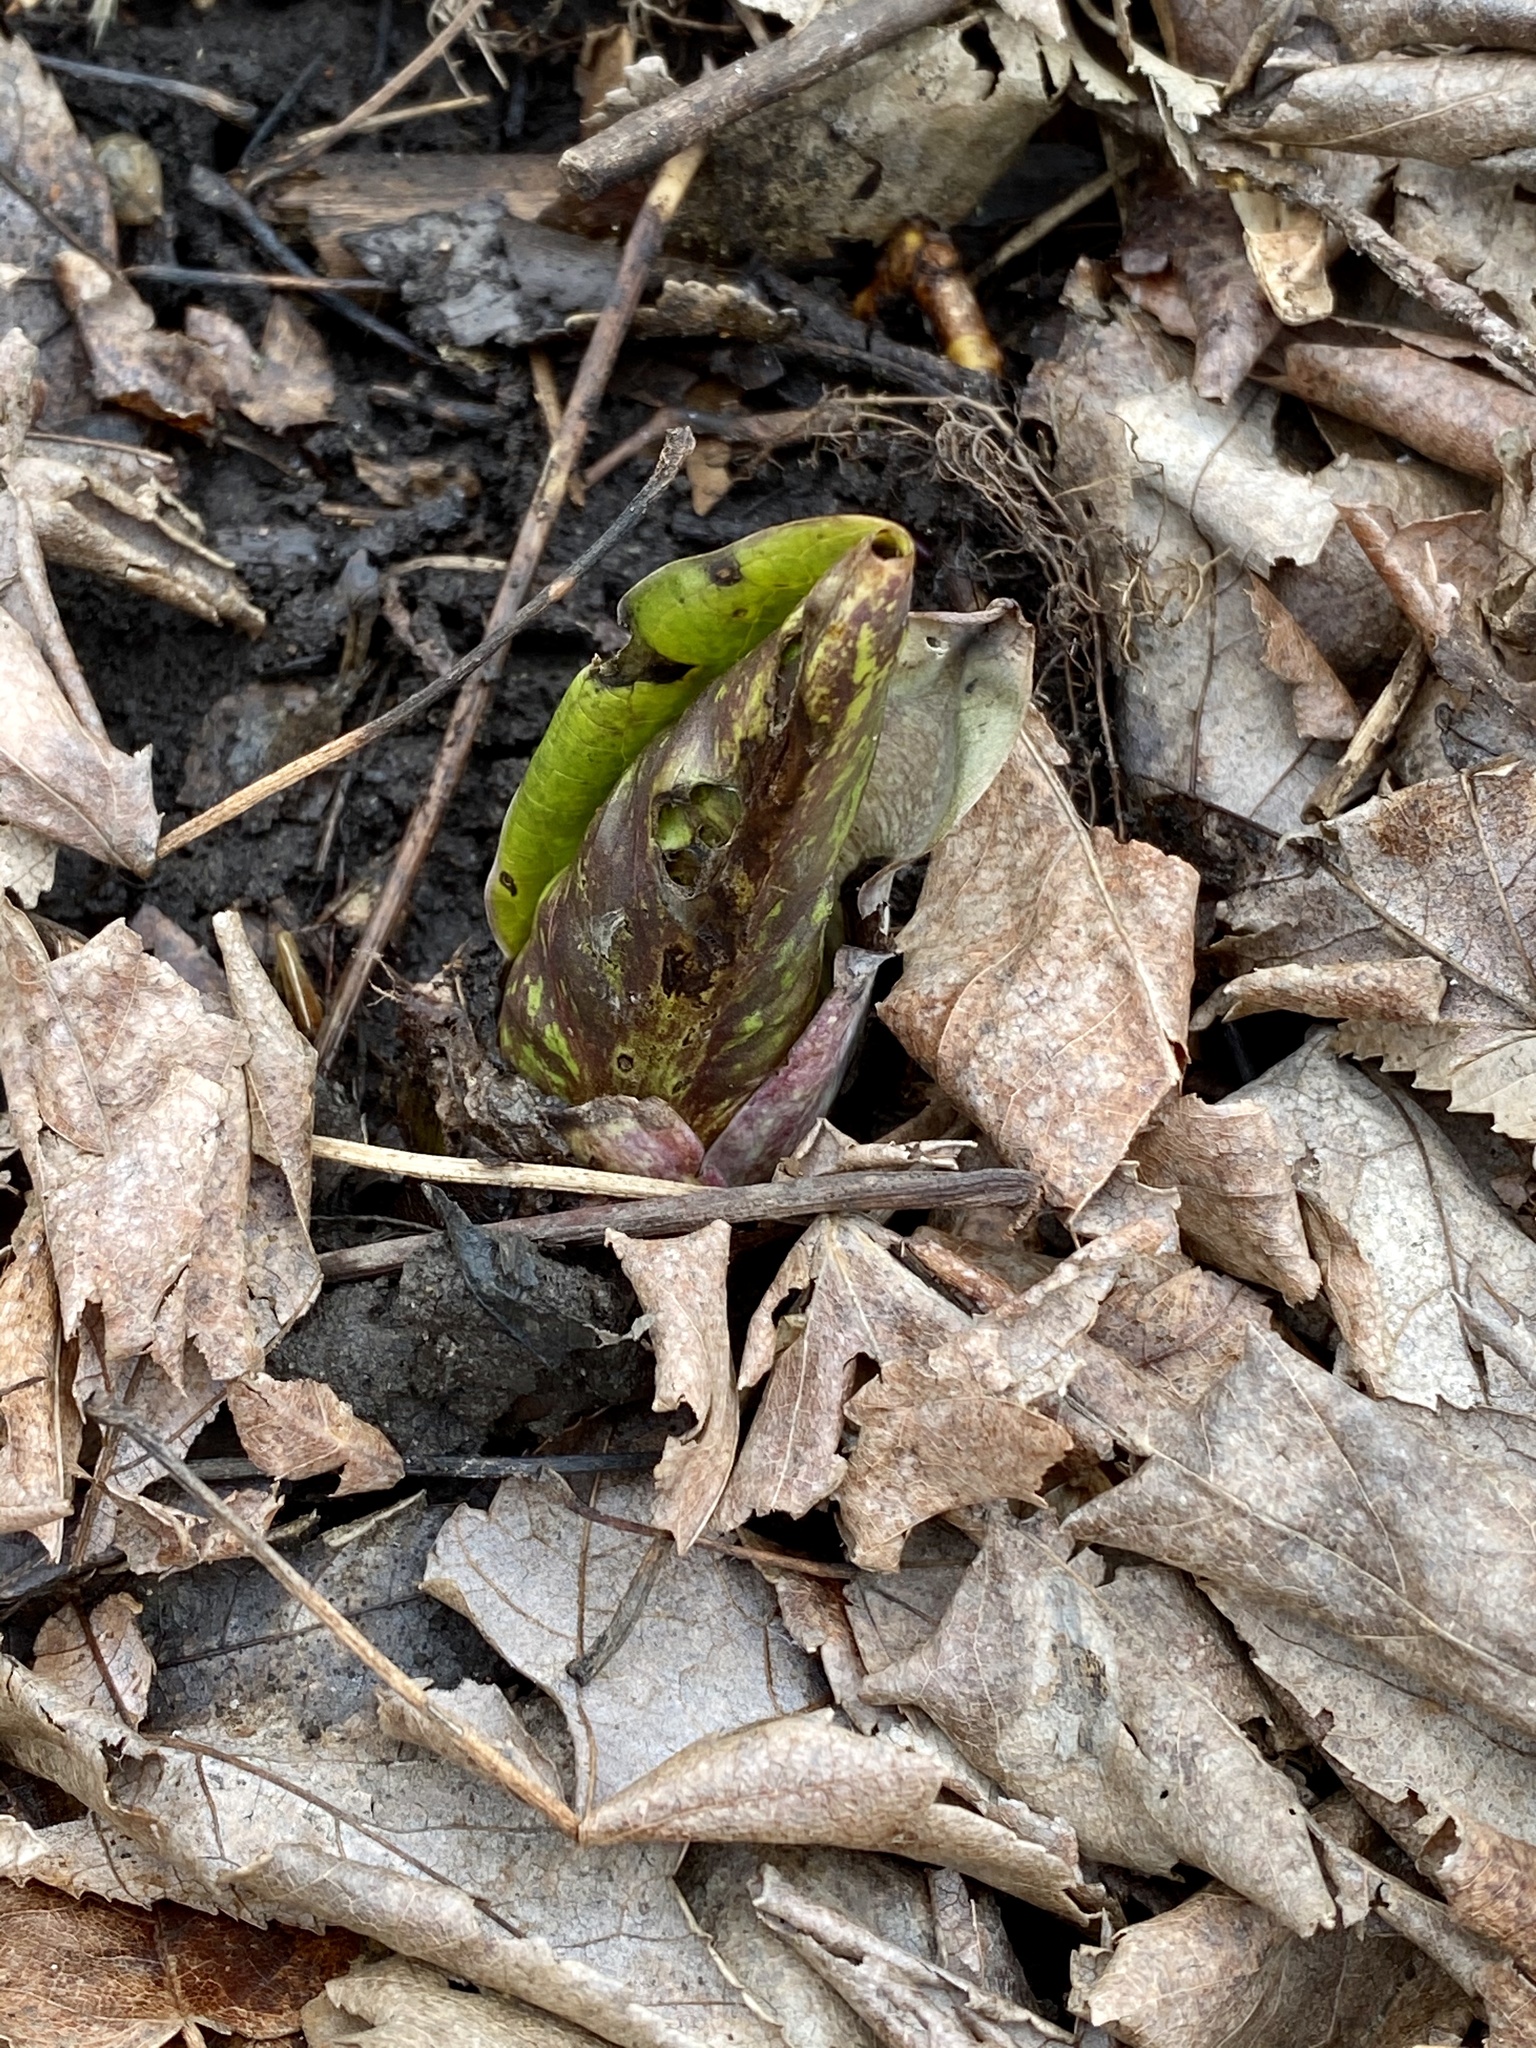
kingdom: Plantae
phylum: Tracheophyta
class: Liliopsida
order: Alismatales
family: Araceae
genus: Symplocarpus
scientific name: Symplocarpus foetidus
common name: Eastern skunk cabbage
